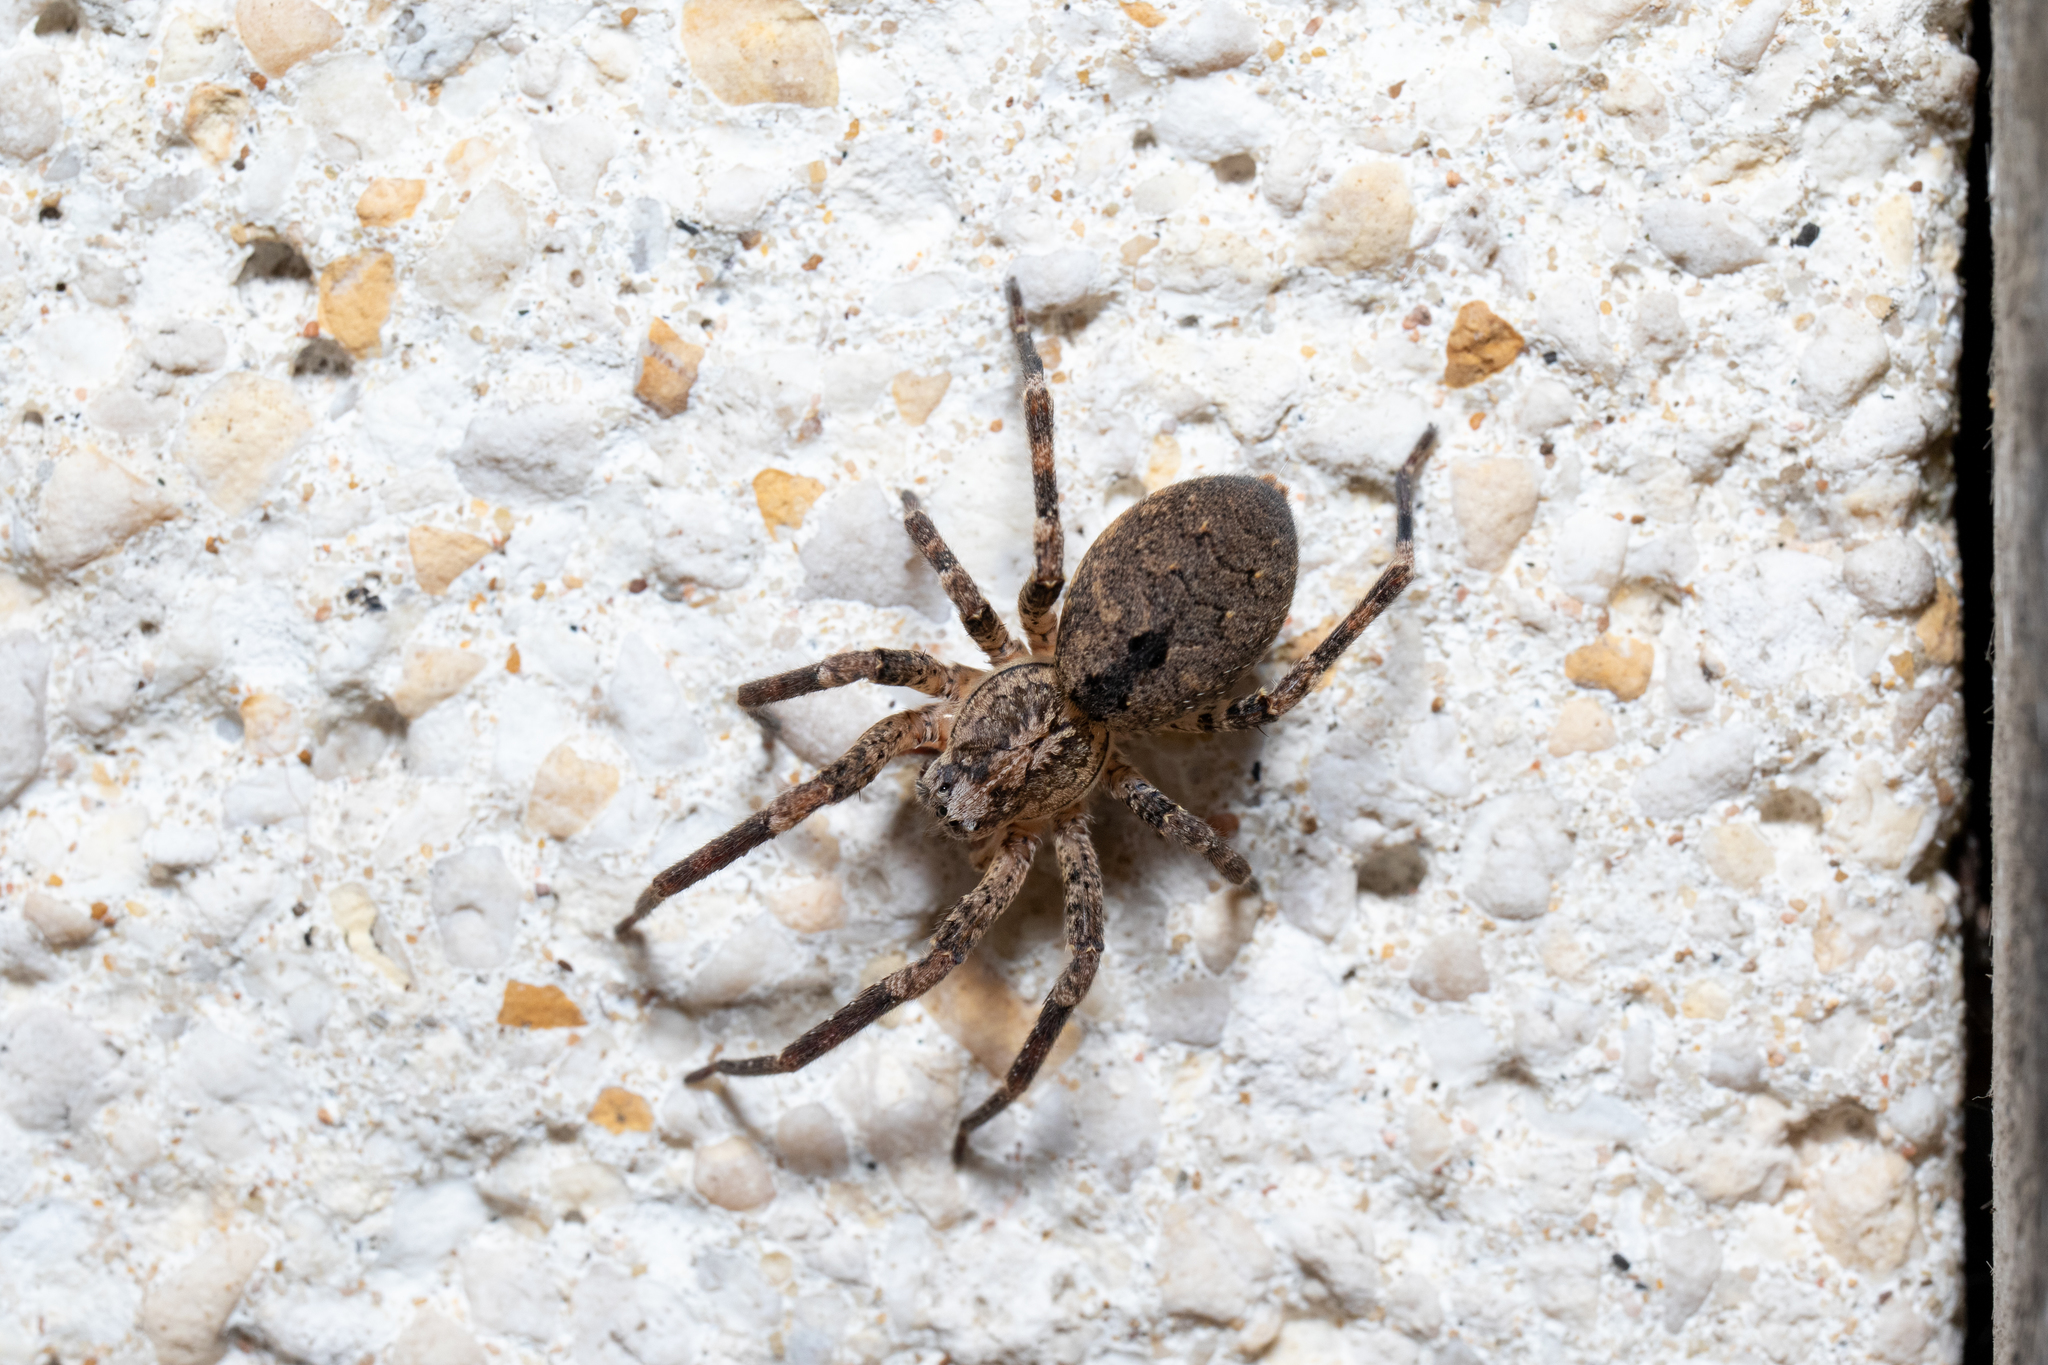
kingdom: Animalia
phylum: Arthropoda
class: Arachnida
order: Araneae
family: Zoropsidae
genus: Zoropsis
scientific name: Zoropsis spinimana
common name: Zoropsid spider
